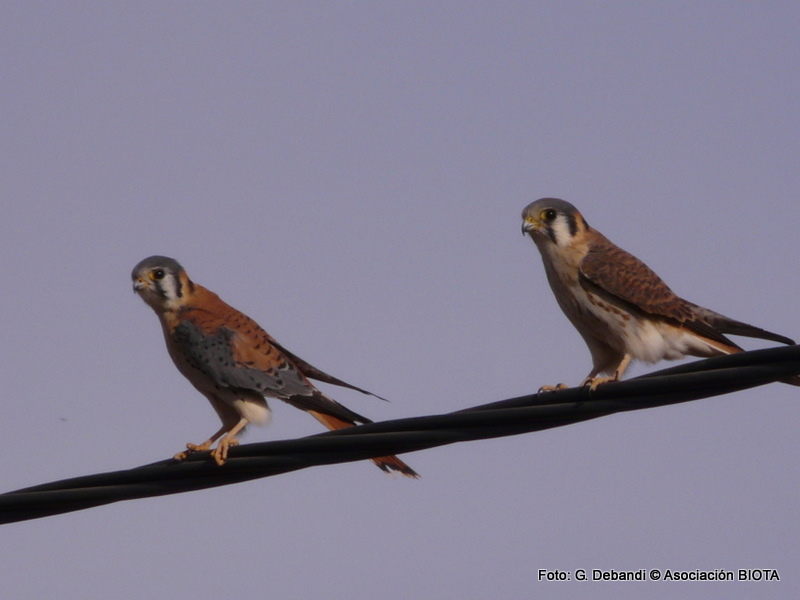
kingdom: Animalia
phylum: Chordata
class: Aves
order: Falconiformes
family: Falconidae
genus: Falco
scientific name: Falco sparverius
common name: American kestrel
